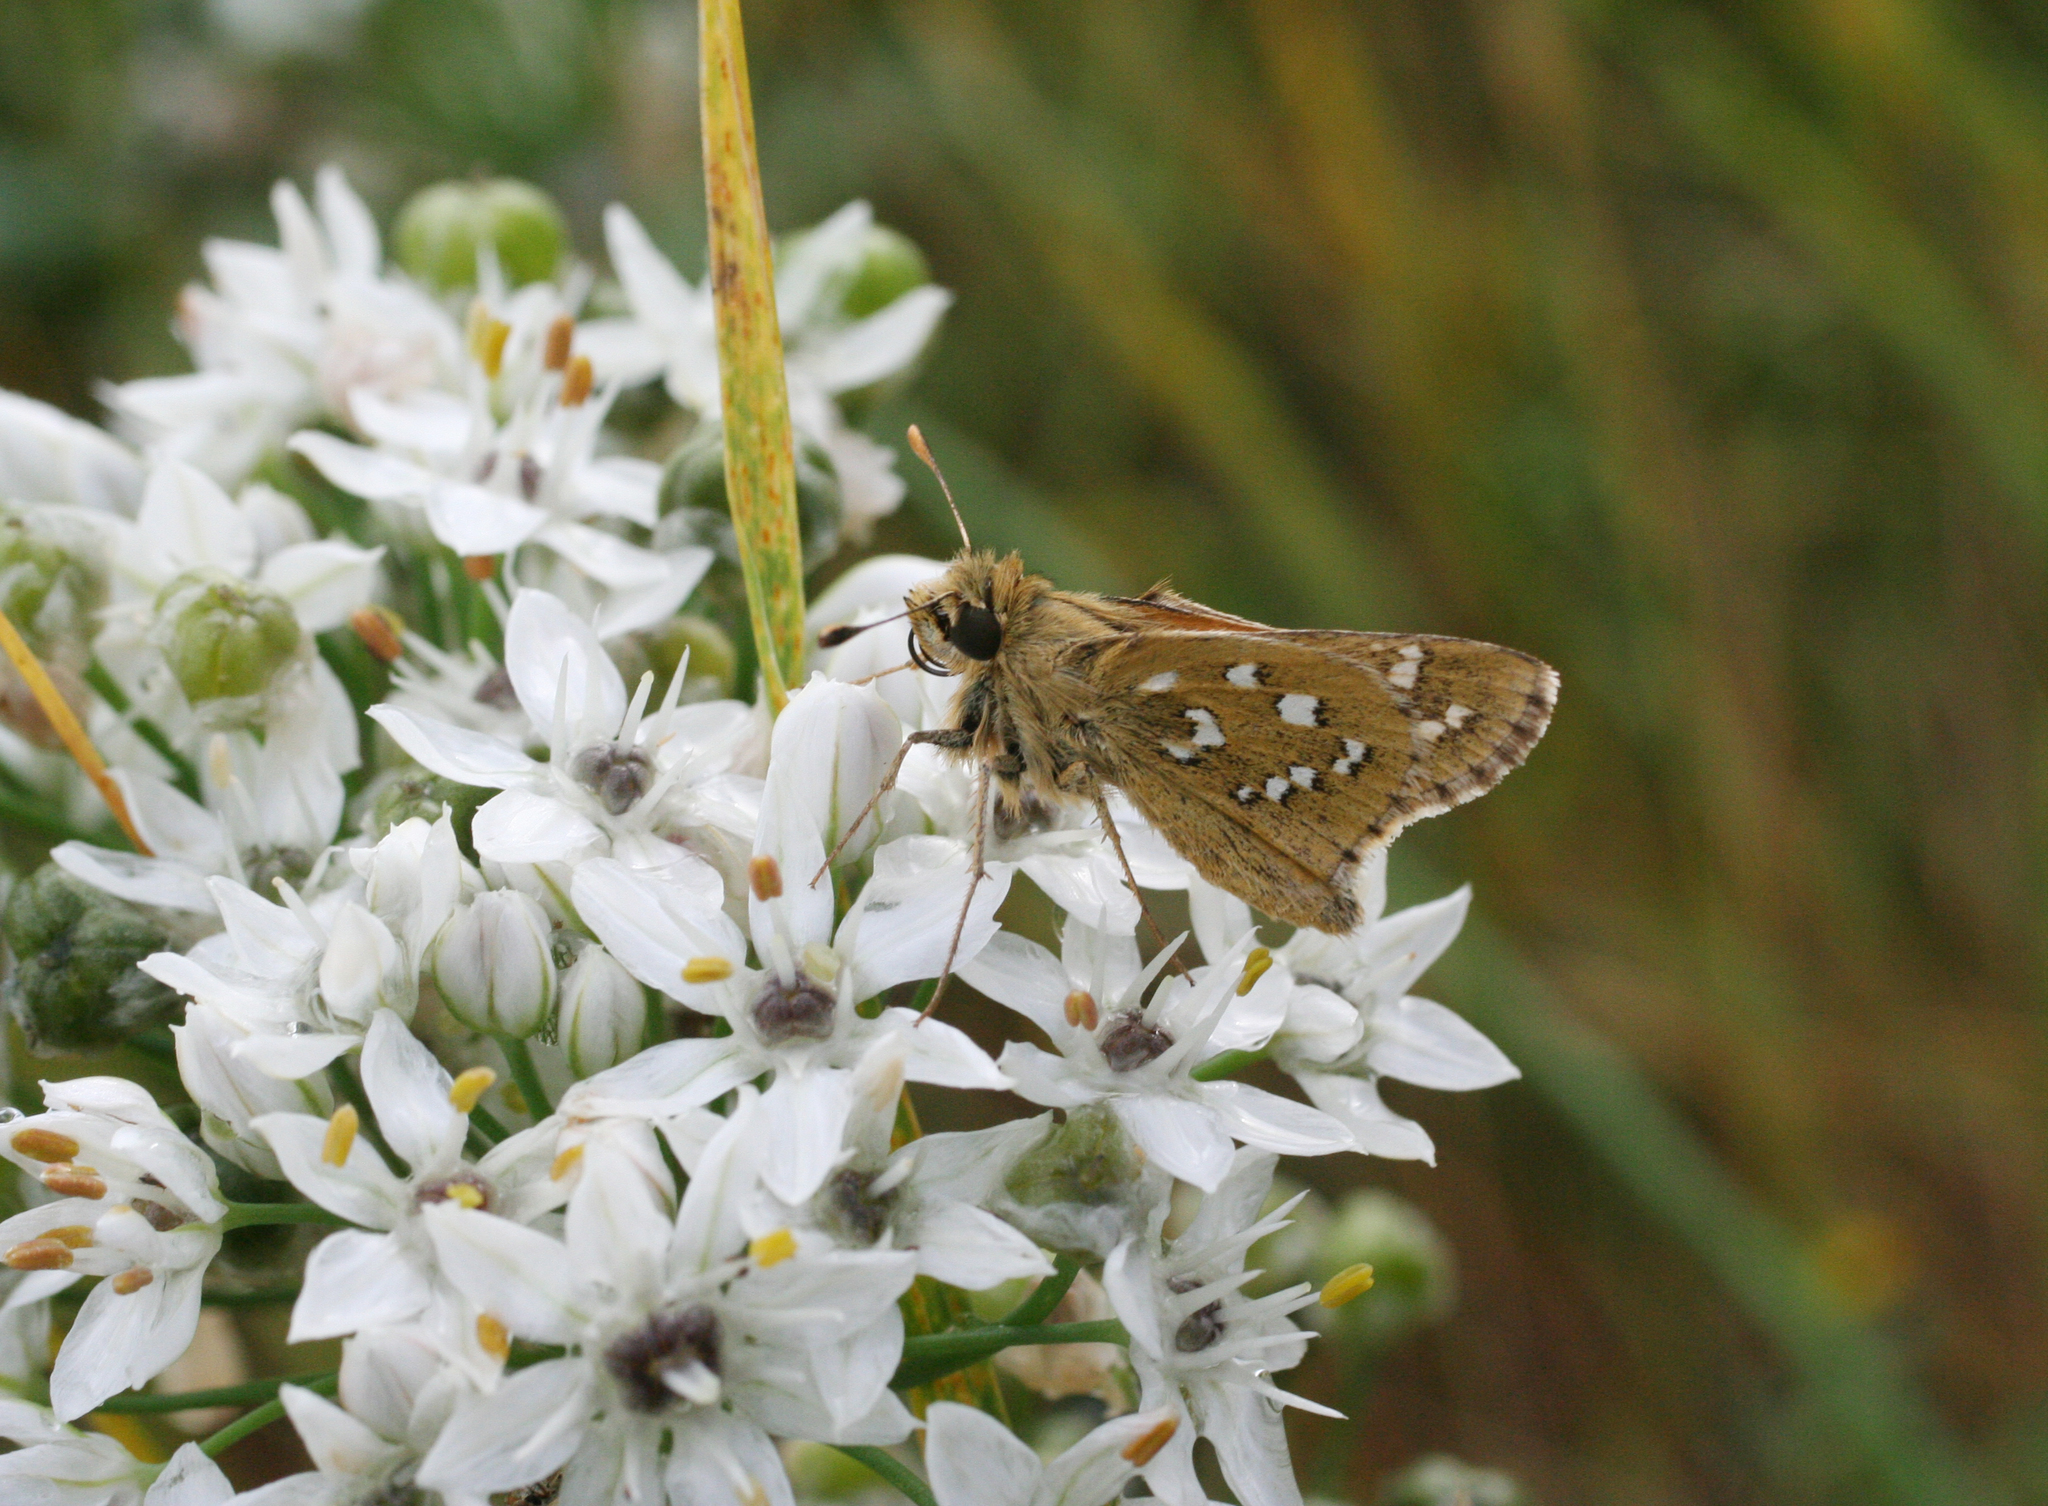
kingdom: Animalia
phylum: Arthropoda
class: Insecta
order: Lepidoptera
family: Hesperiidae
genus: Hesperia
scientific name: Hesperia comma
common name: Common branded skipper
